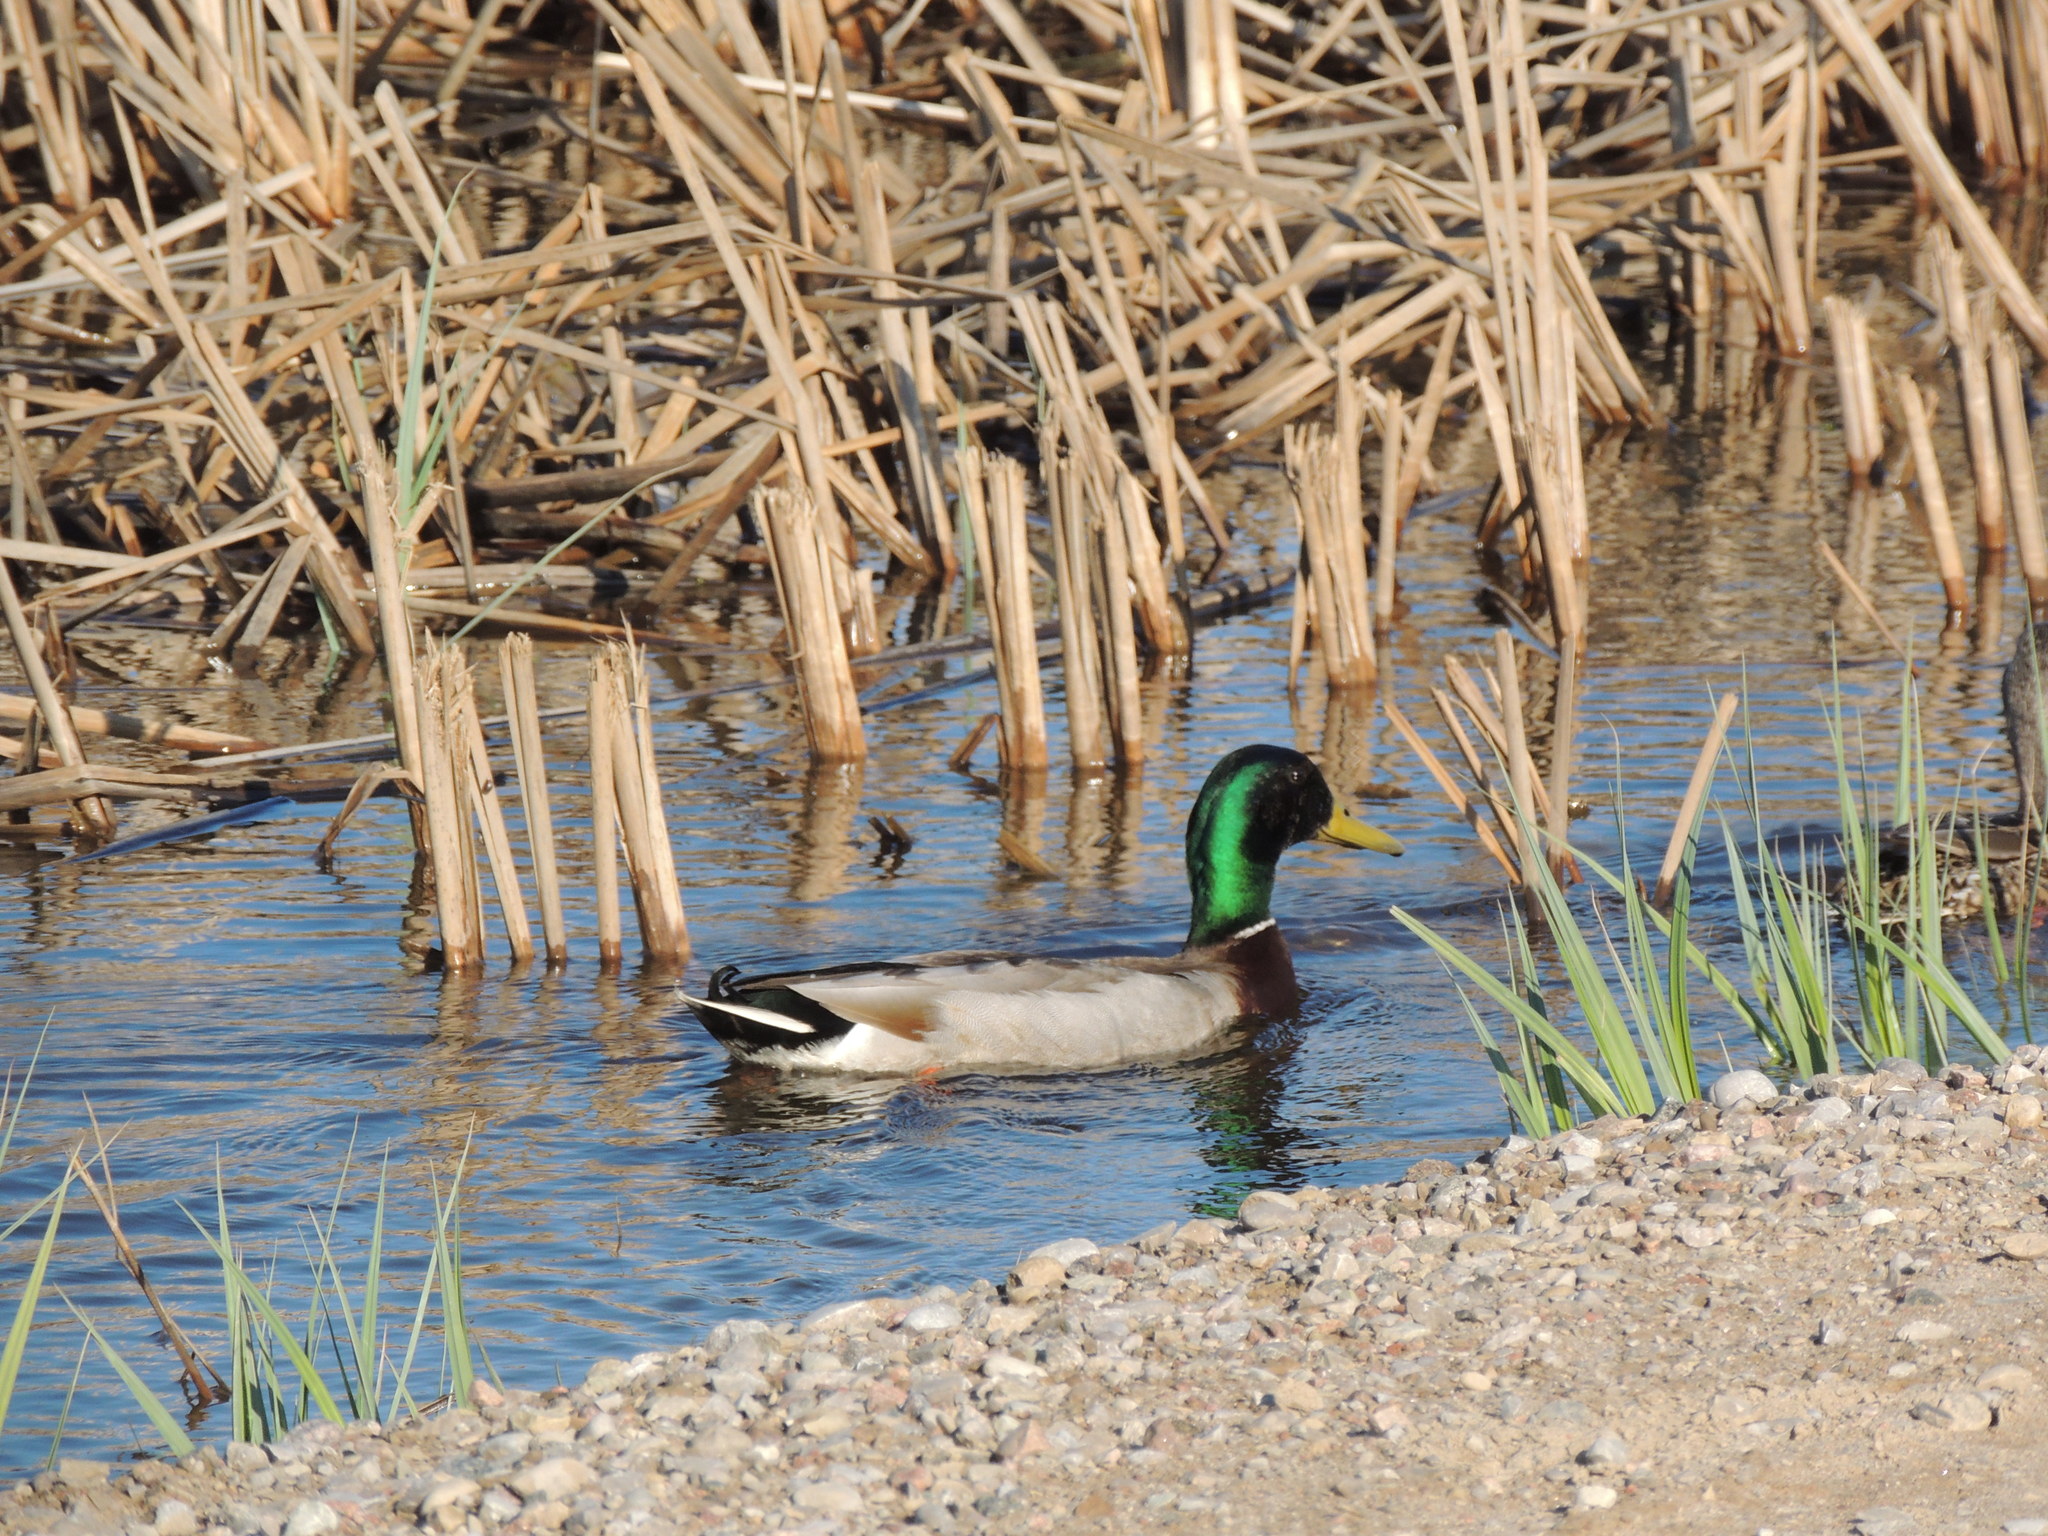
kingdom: Animalia
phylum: Chordata
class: Aves
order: Anseriformes
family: Anatidae
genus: Anas
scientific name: Anas platyrhynchos
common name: Mallard
